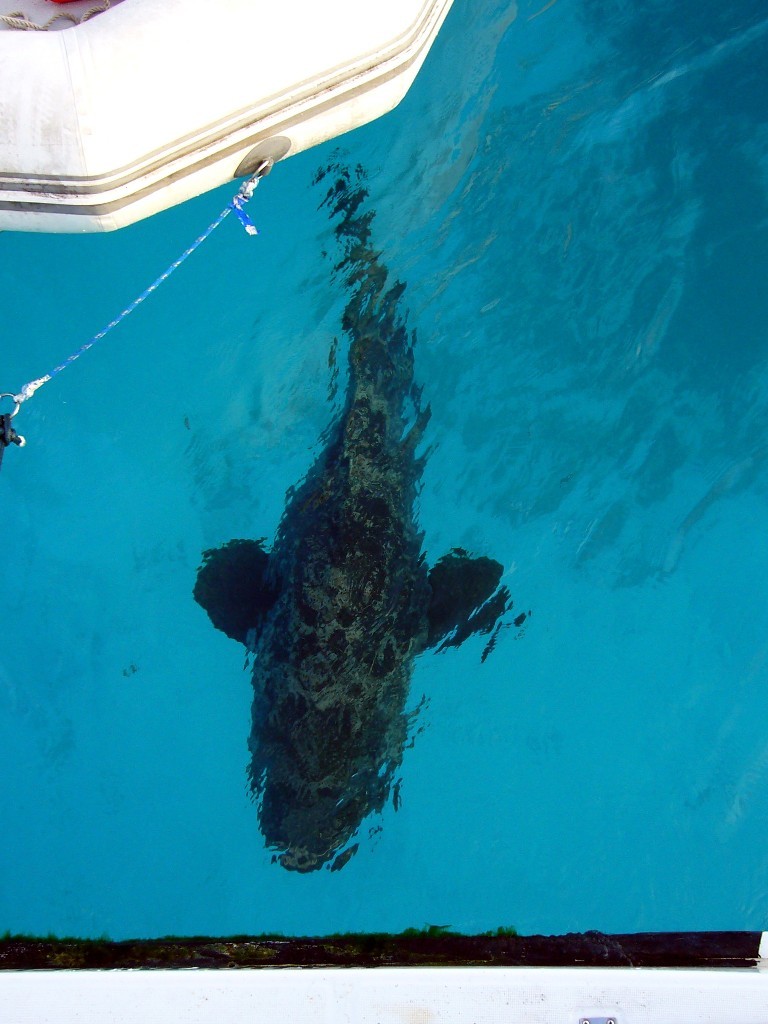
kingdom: Animalia
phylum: Chordata
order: Perciformes
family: Serranidae
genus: Epinephelus
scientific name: Epinephelus itajara
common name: Jewfish
